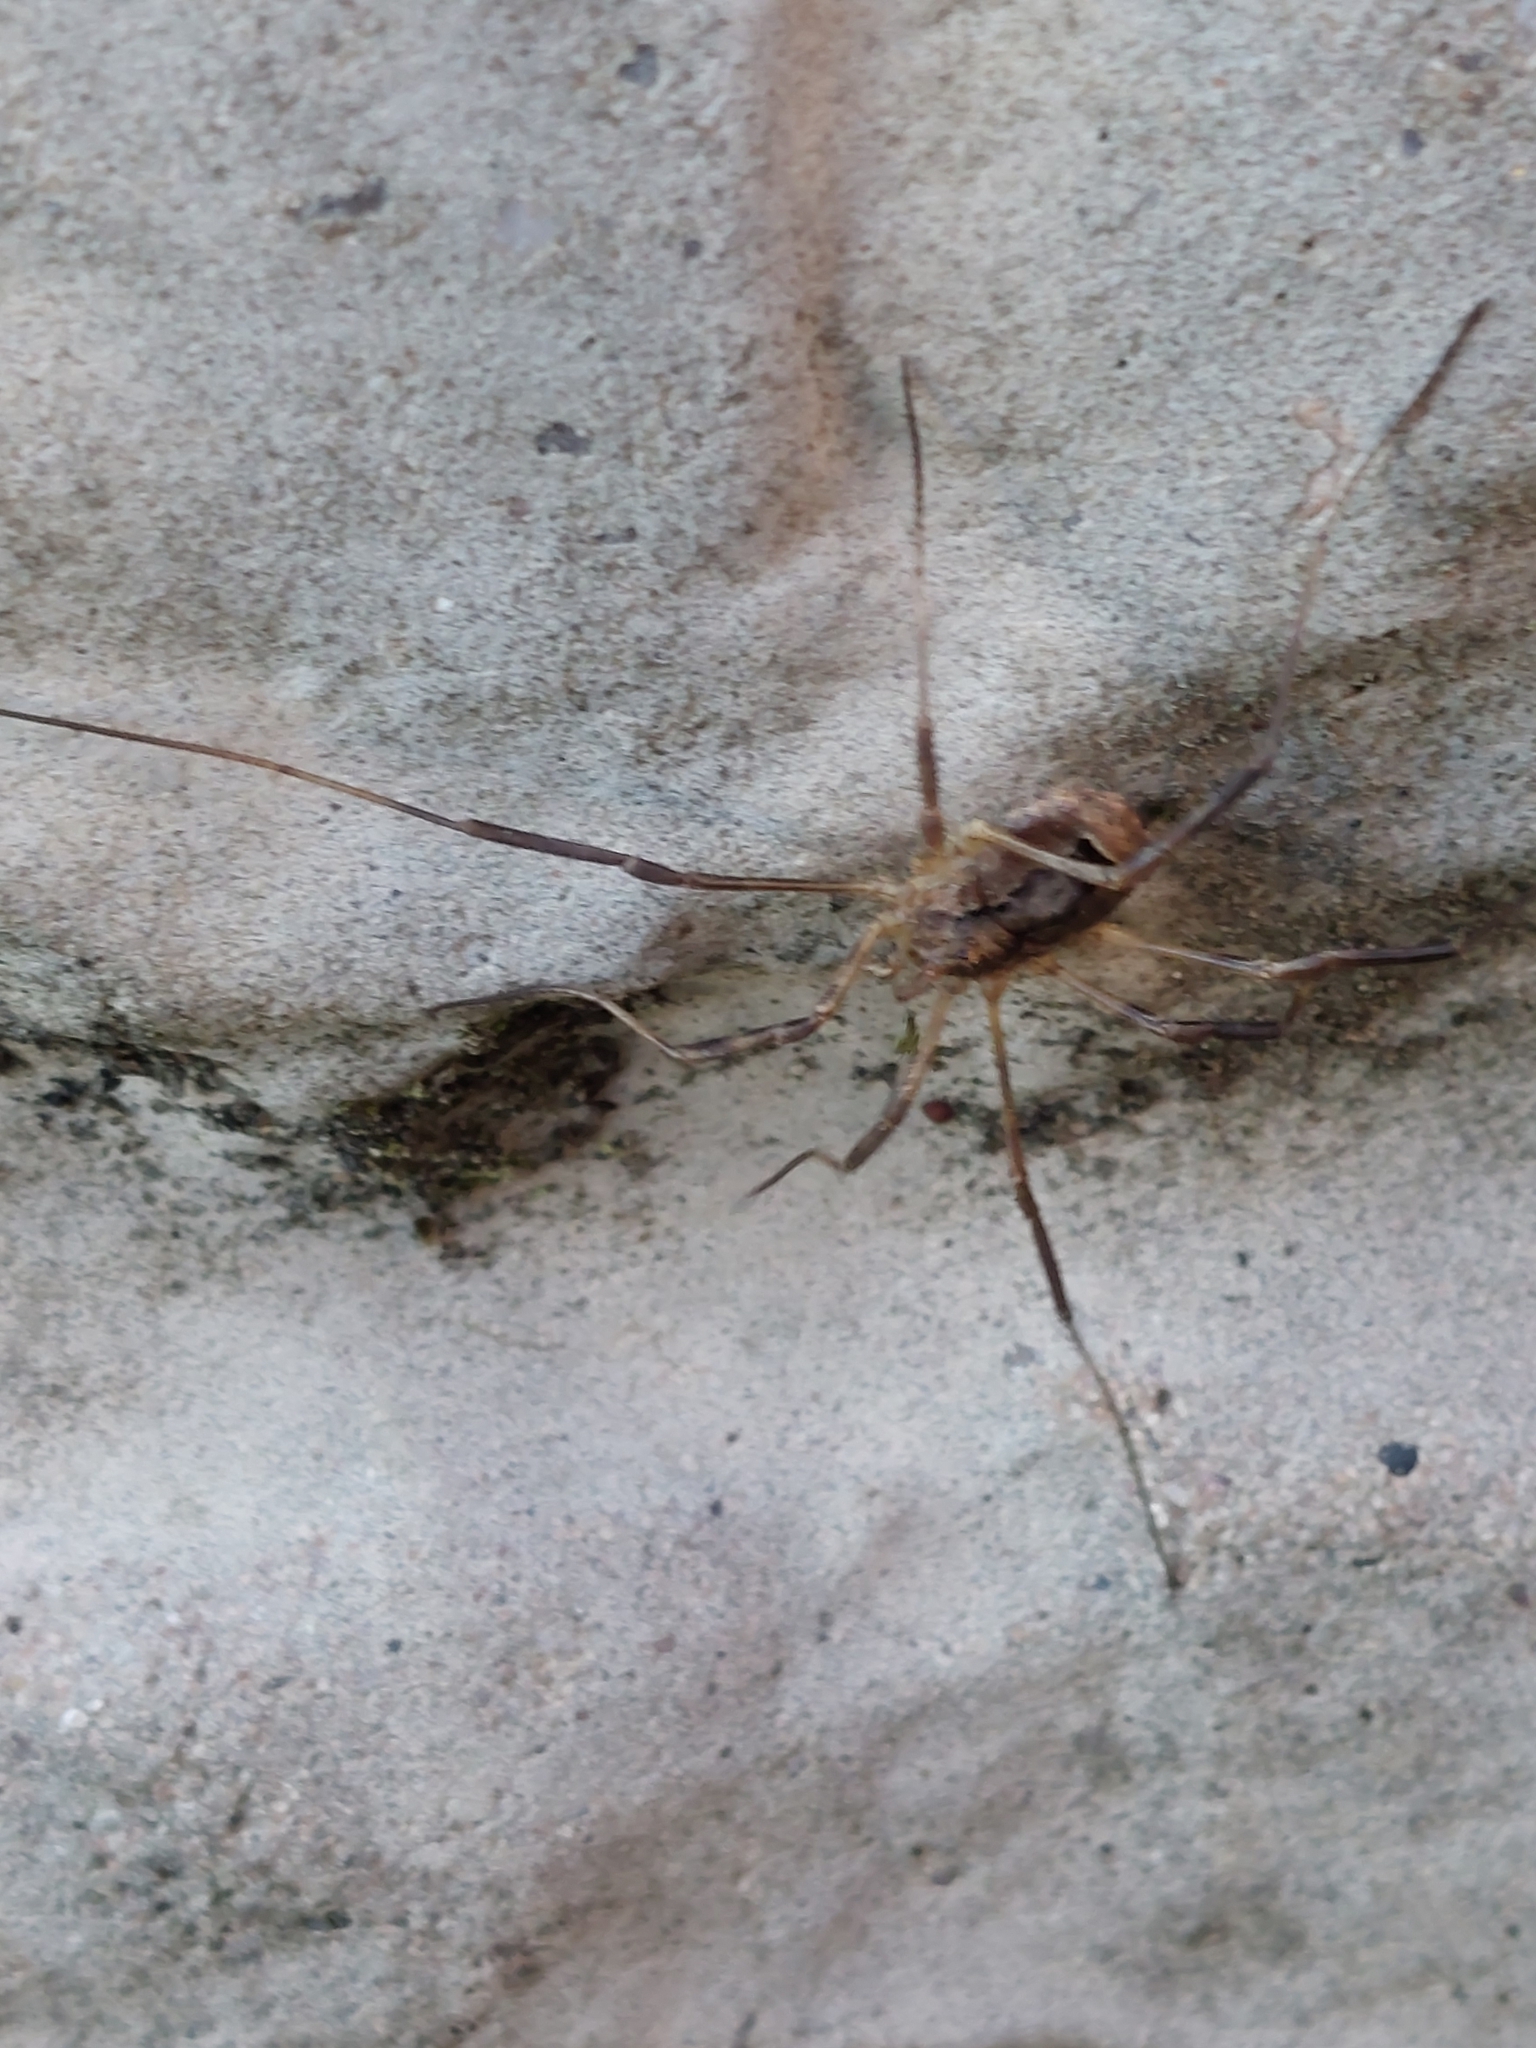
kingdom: Animalia
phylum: Arthropoda
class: Arachnida
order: Opiliones
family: Phalangiidae
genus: Odiellus
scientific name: Odiellus spinosus
